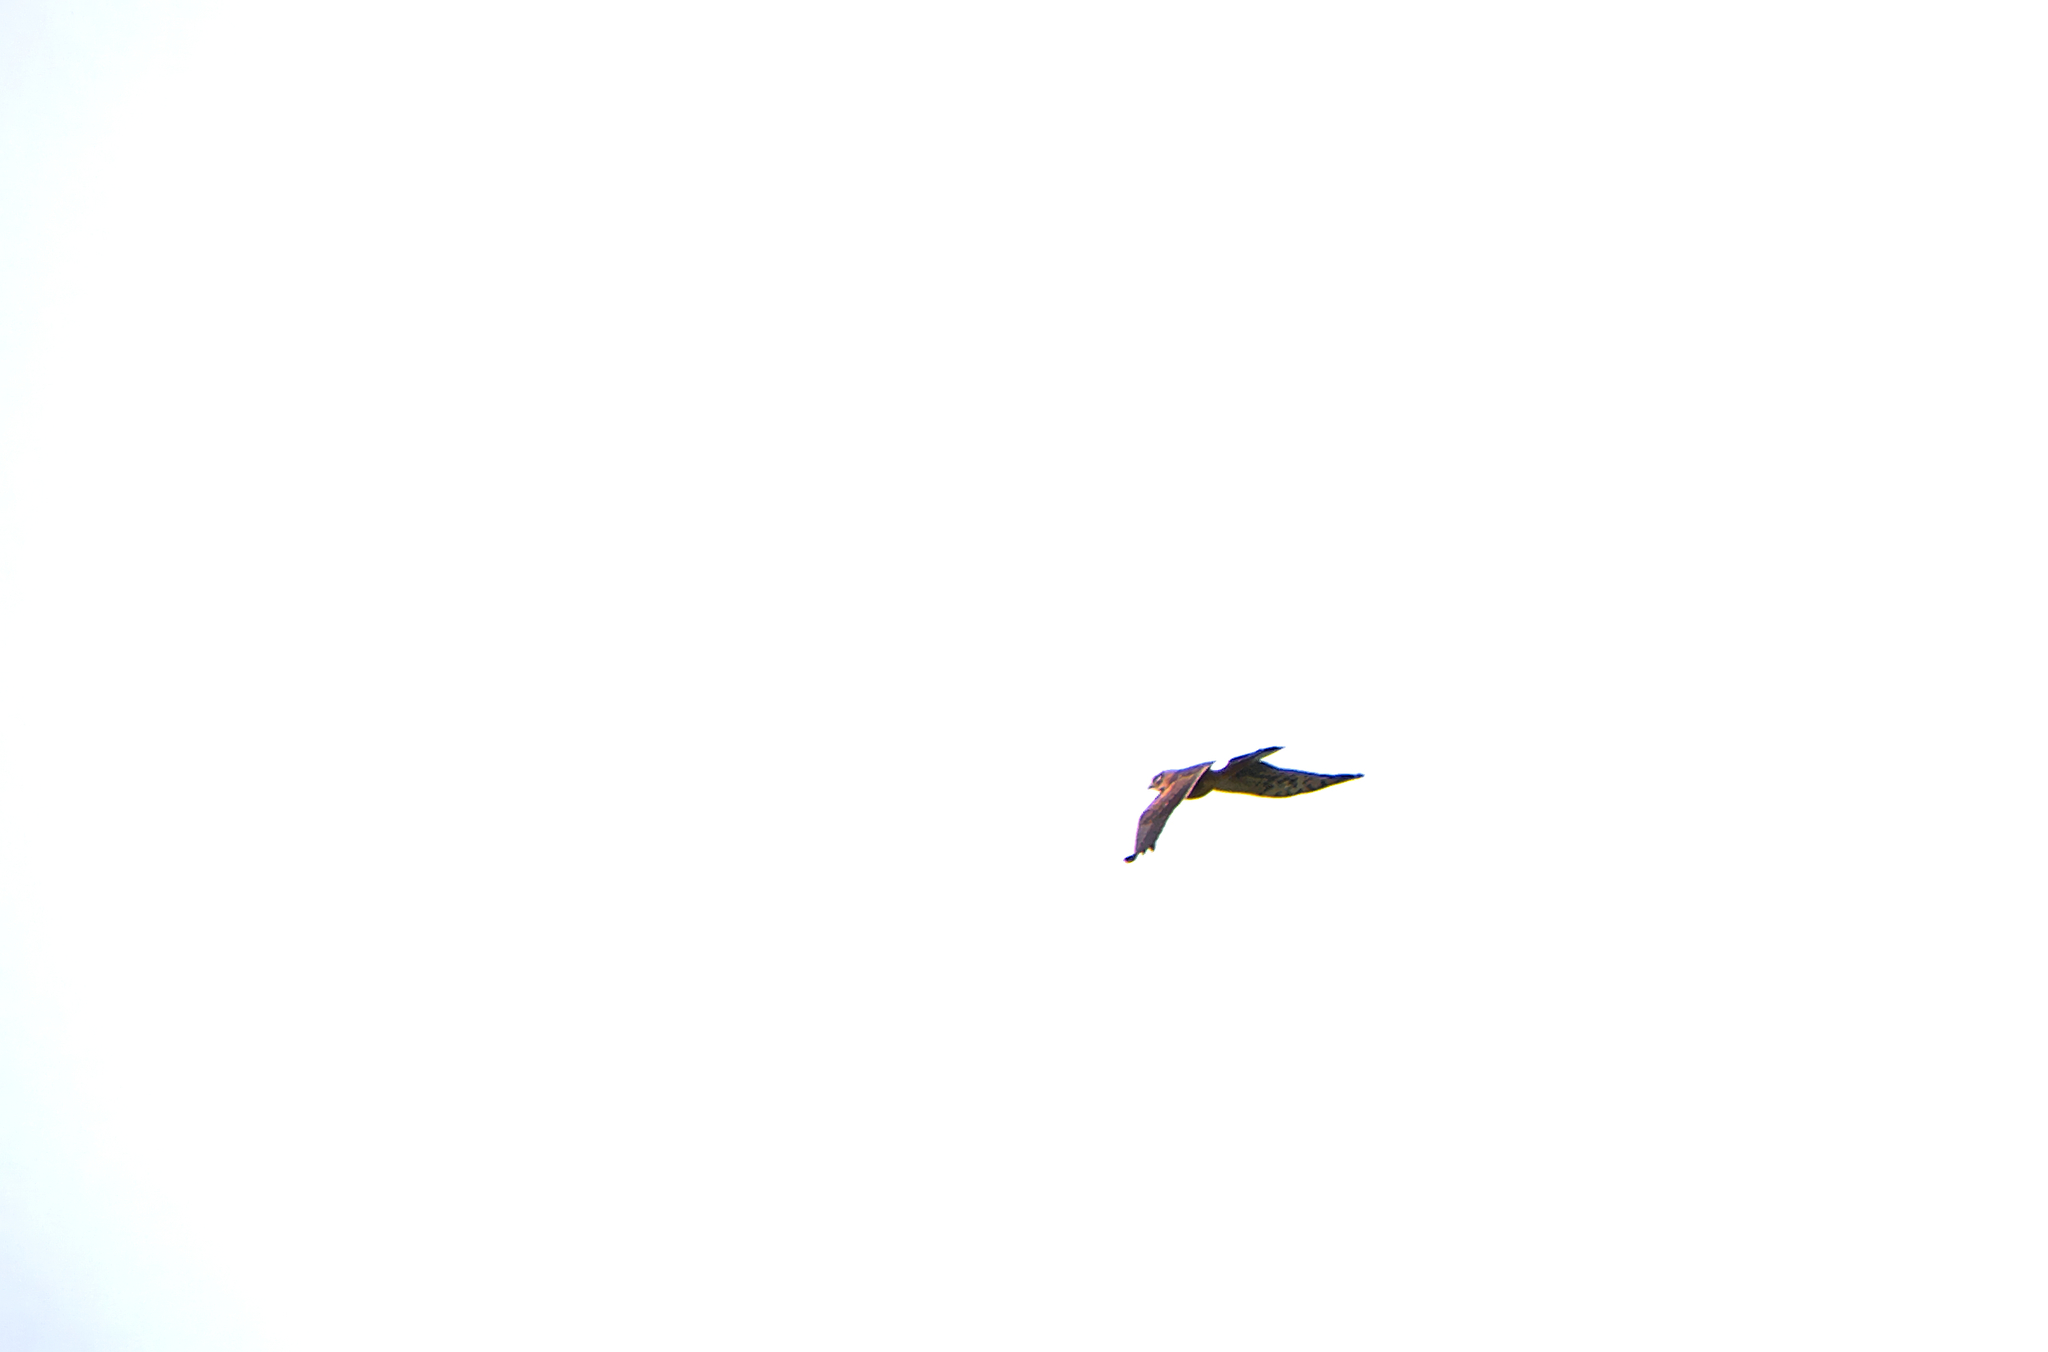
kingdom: Animalia
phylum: Chordata
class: Aves
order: Accipitriformes
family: Accipitridae
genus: Circus
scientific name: Circus cyaneus
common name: Hen harrier
